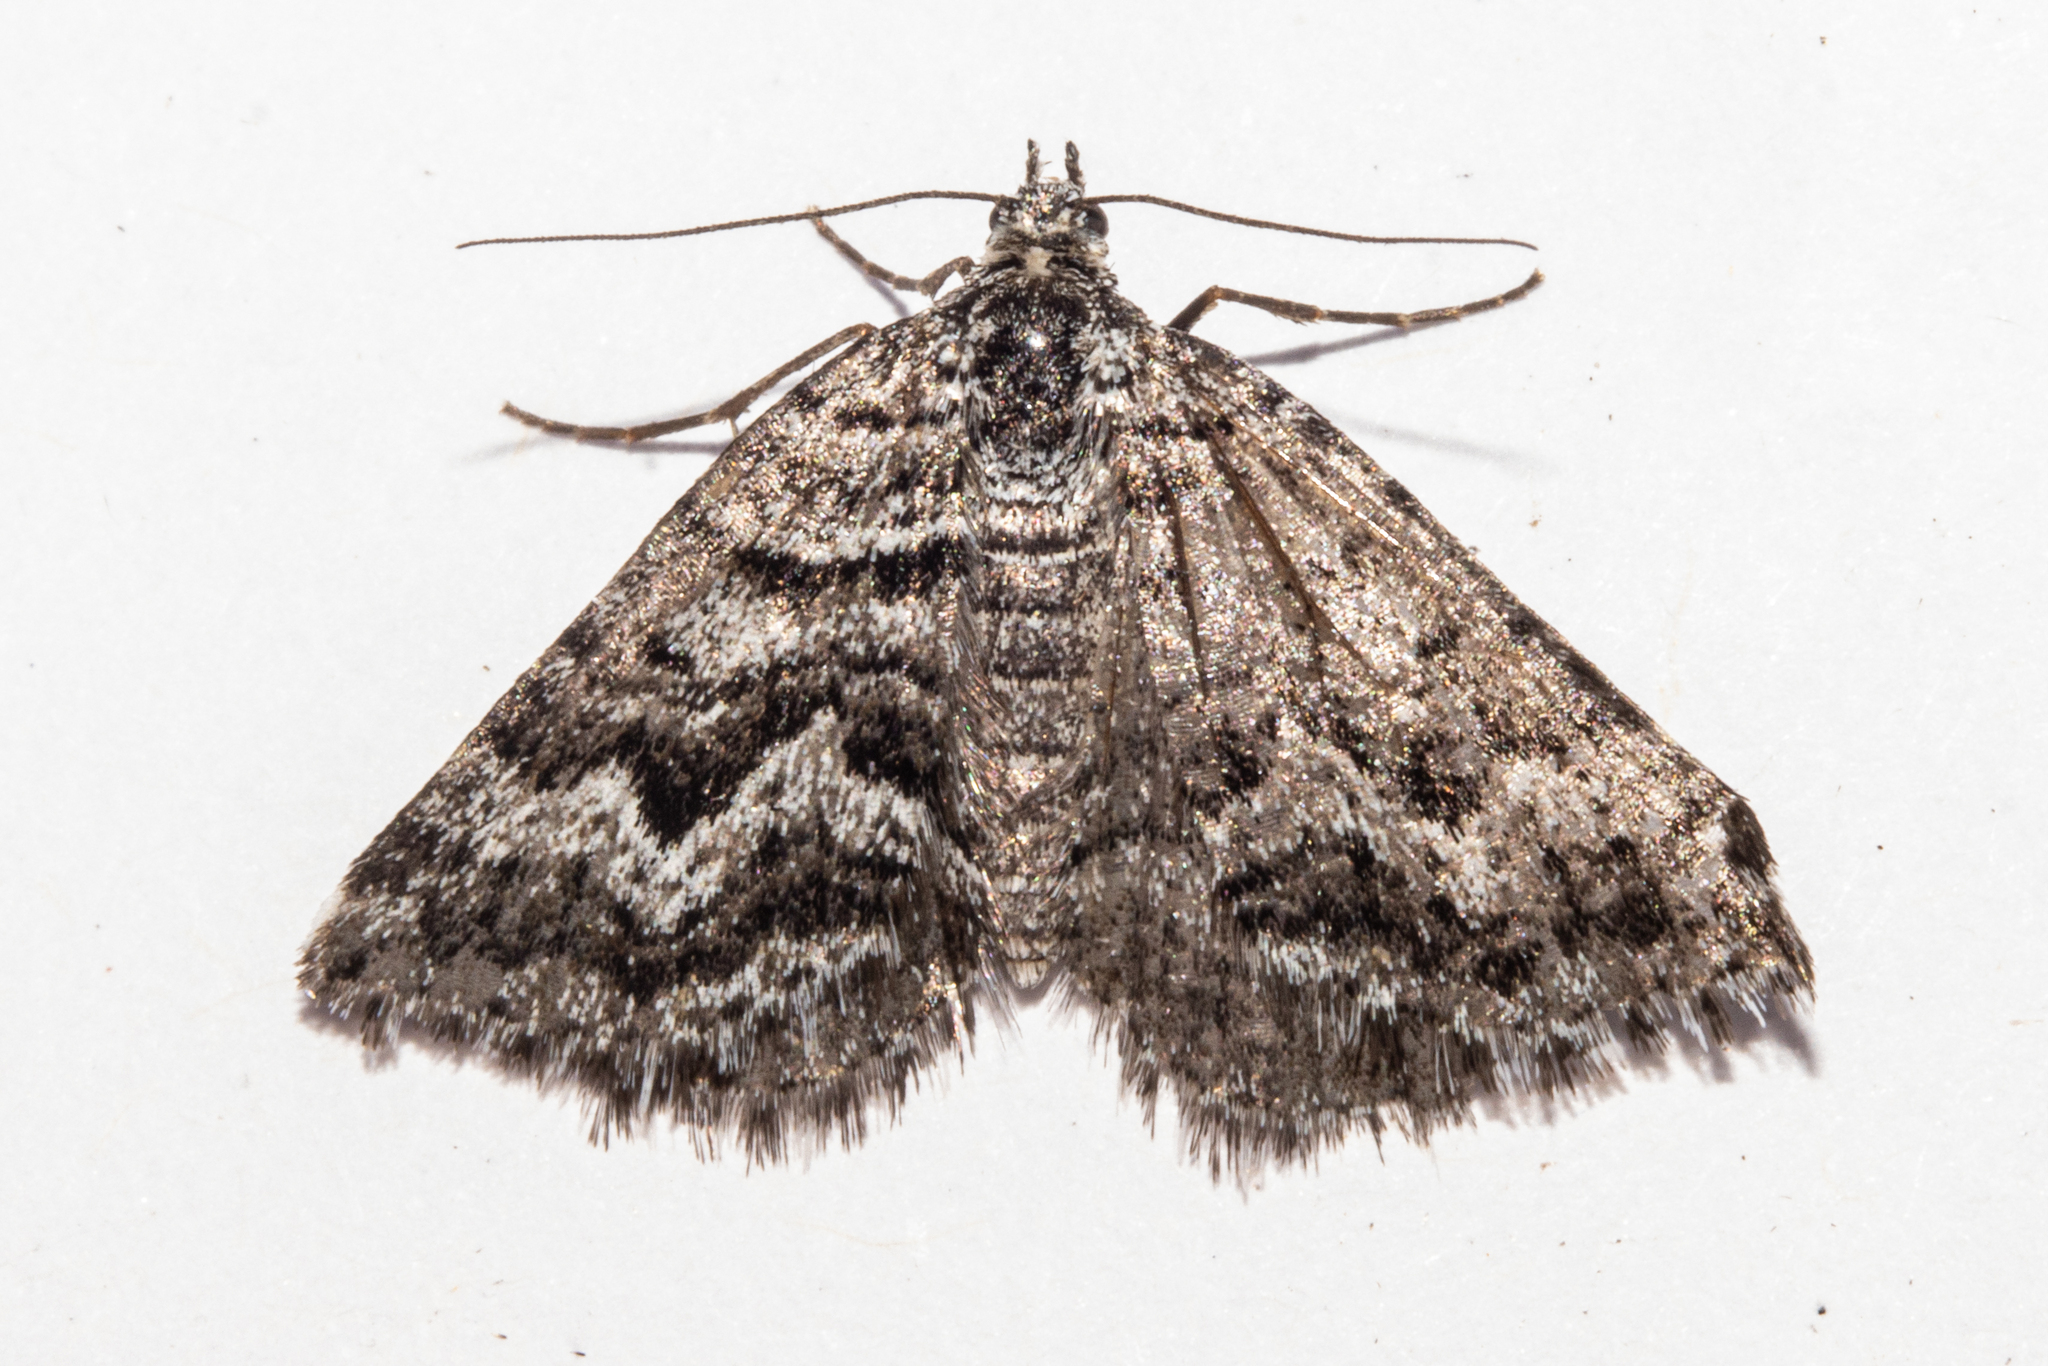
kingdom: Animalia
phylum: Arthropoda
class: Insecta
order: Lepidoptera
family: Geometridae
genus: Aponotoreas
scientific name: Aponotoreas anthracias
